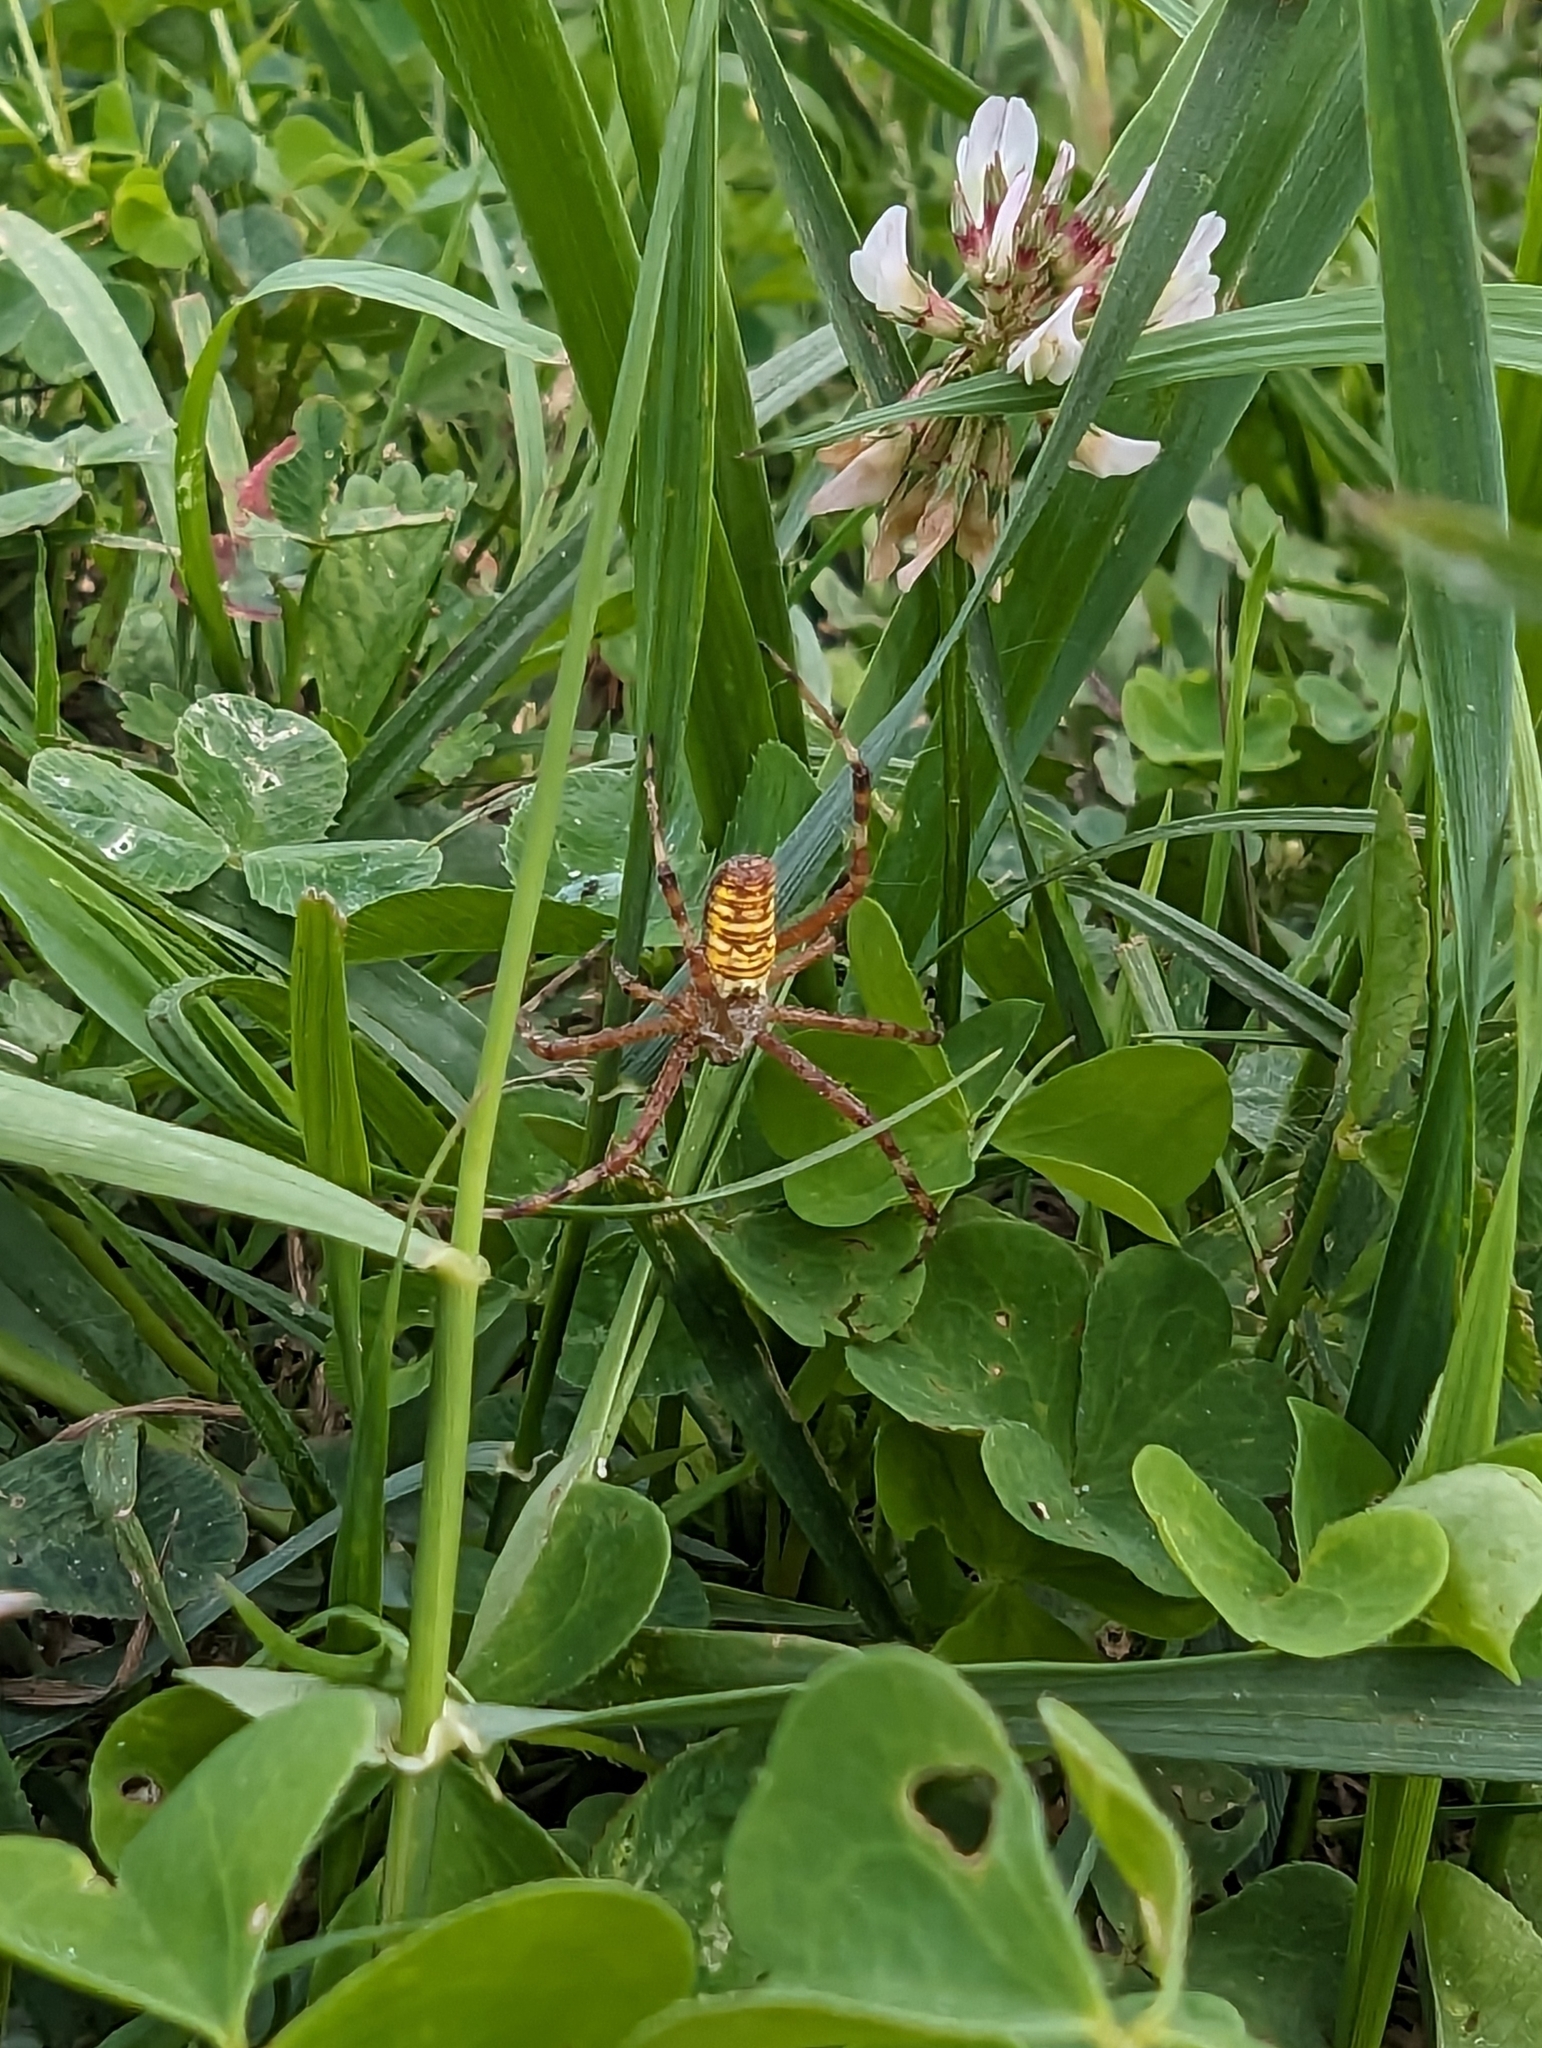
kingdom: Animalia
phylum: Arthropoda
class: Arachnida
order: Araneae
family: Araneidae
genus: Argiope
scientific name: Argiope bruennichi
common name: Wasp spider
